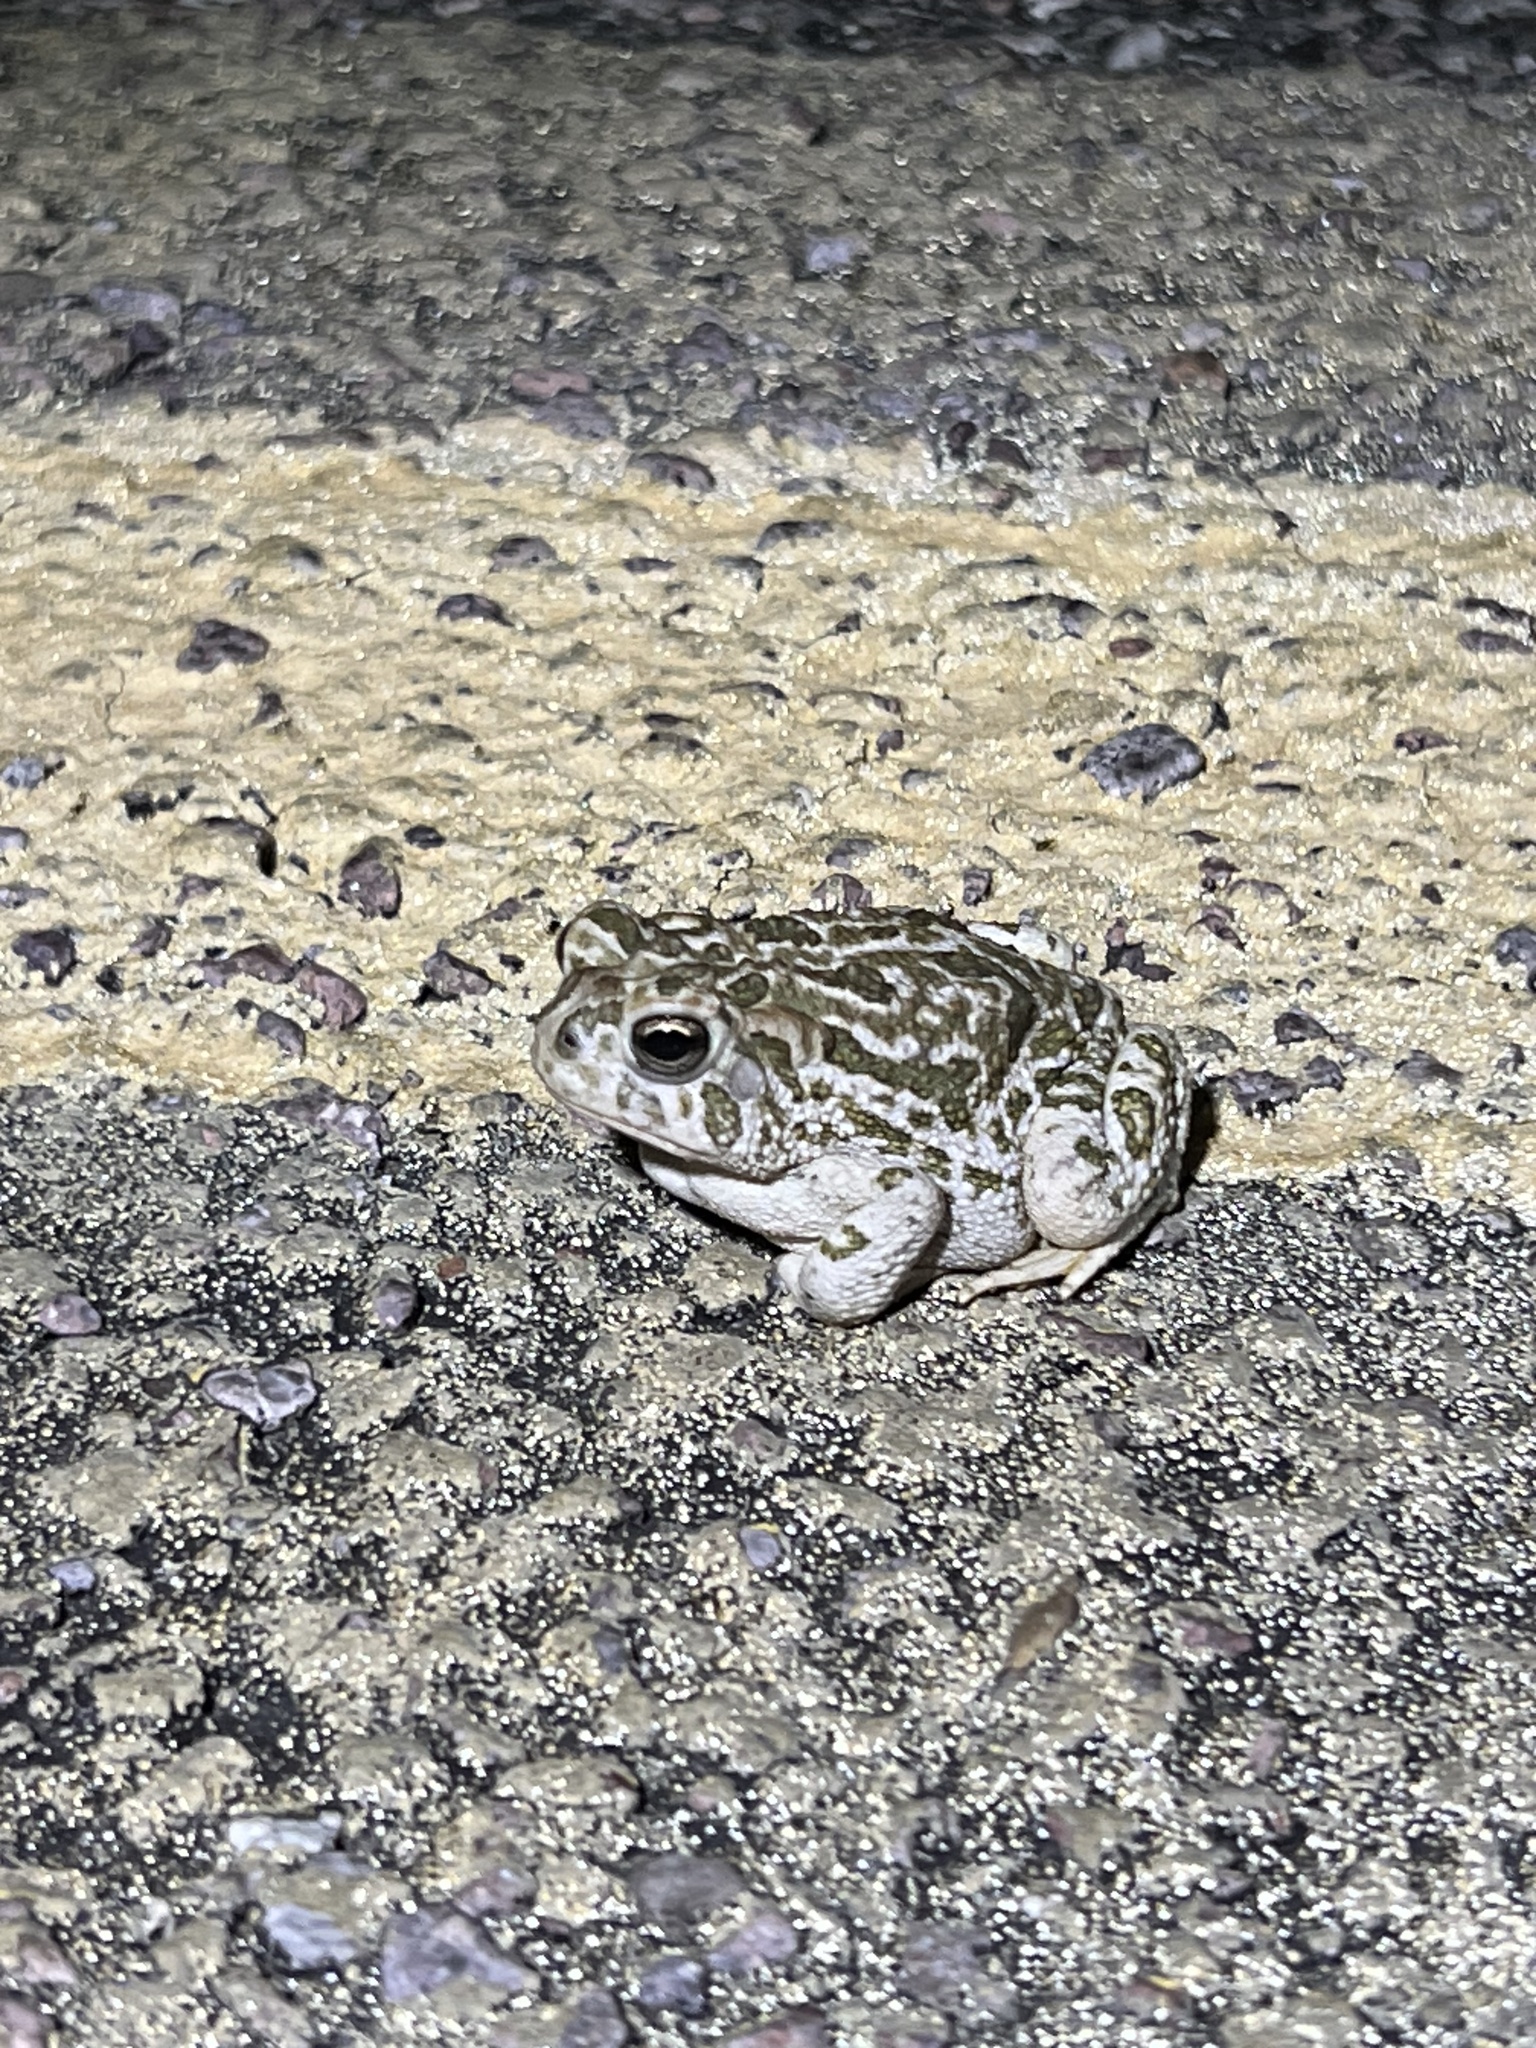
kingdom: Animalia
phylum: Chordata
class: Amphibia
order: Anura
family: Bufonidae
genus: Anaxyrus
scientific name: Anaxyrus cognatus
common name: Great plains toad
